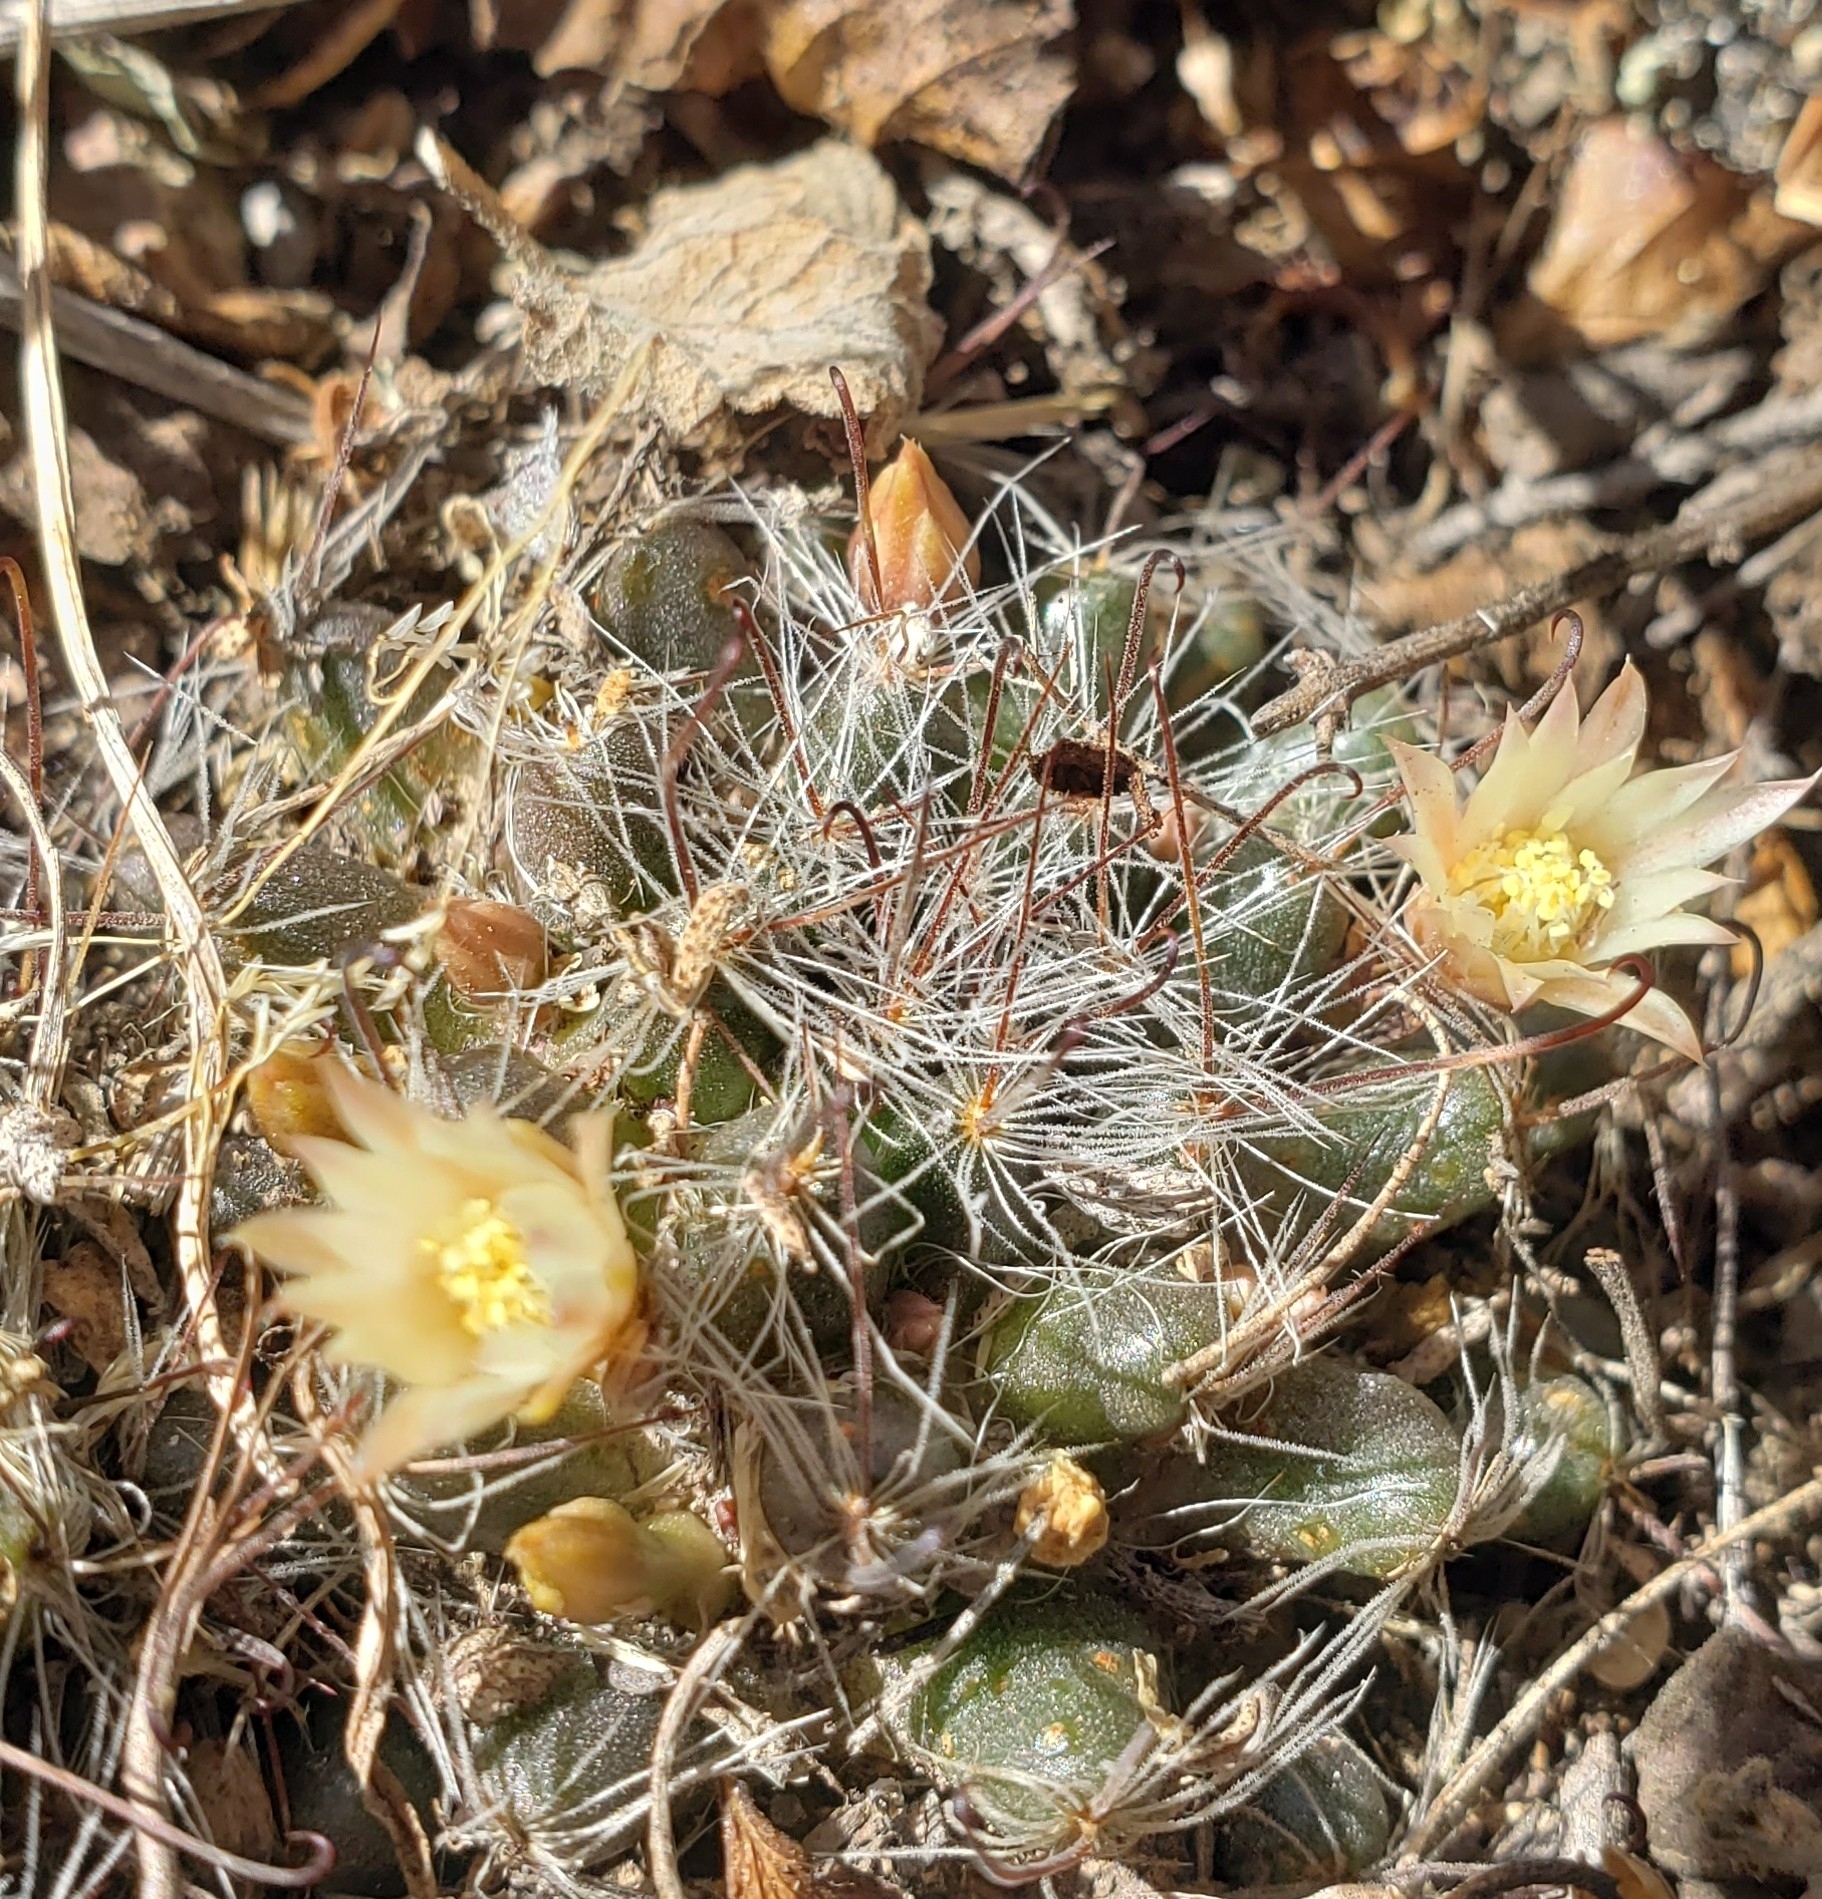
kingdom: Plantae
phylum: Tracheophyta
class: Magnoliopsida
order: Caryophyllales
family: Cactaceae
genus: Mammillaria
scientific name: Mammillaria nana
